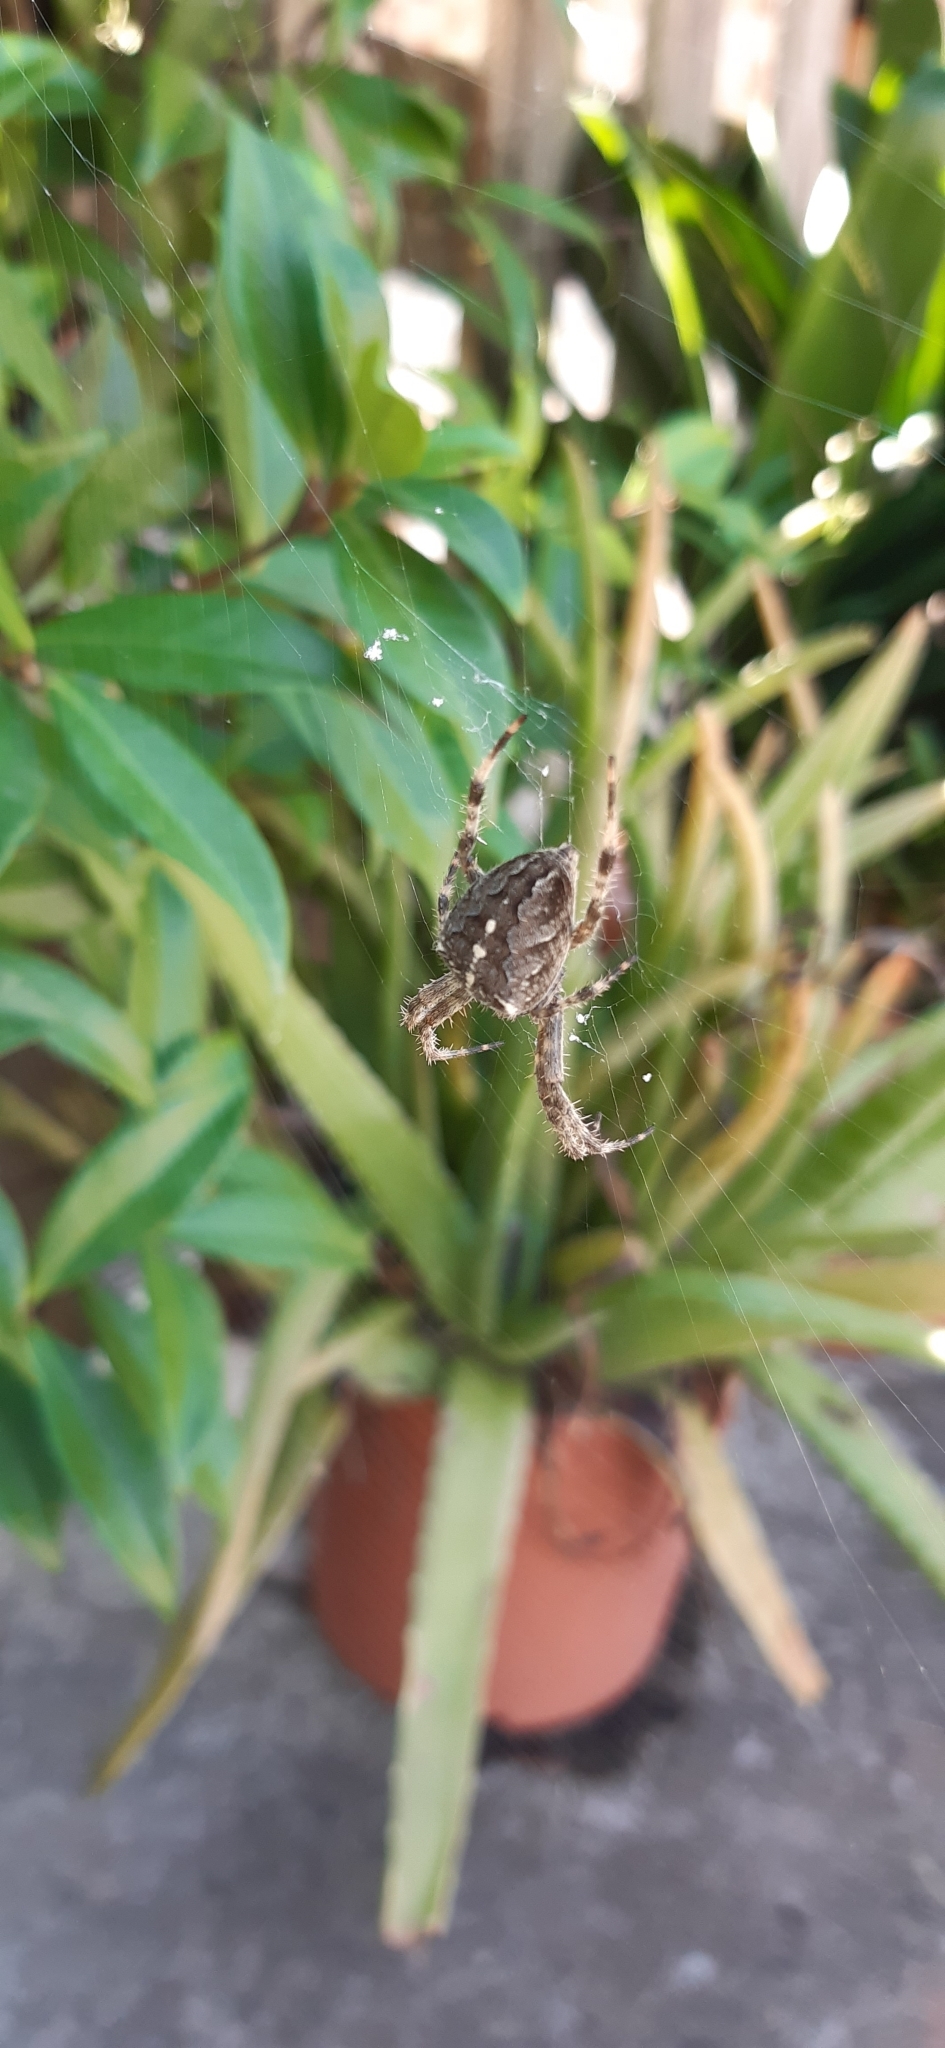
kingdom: Animalia
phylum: Arthropoda
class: Arachnida
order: Araneae
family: Araneidae
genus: Araneus
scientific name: Araneus diadematus
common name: Cross orbweaver
